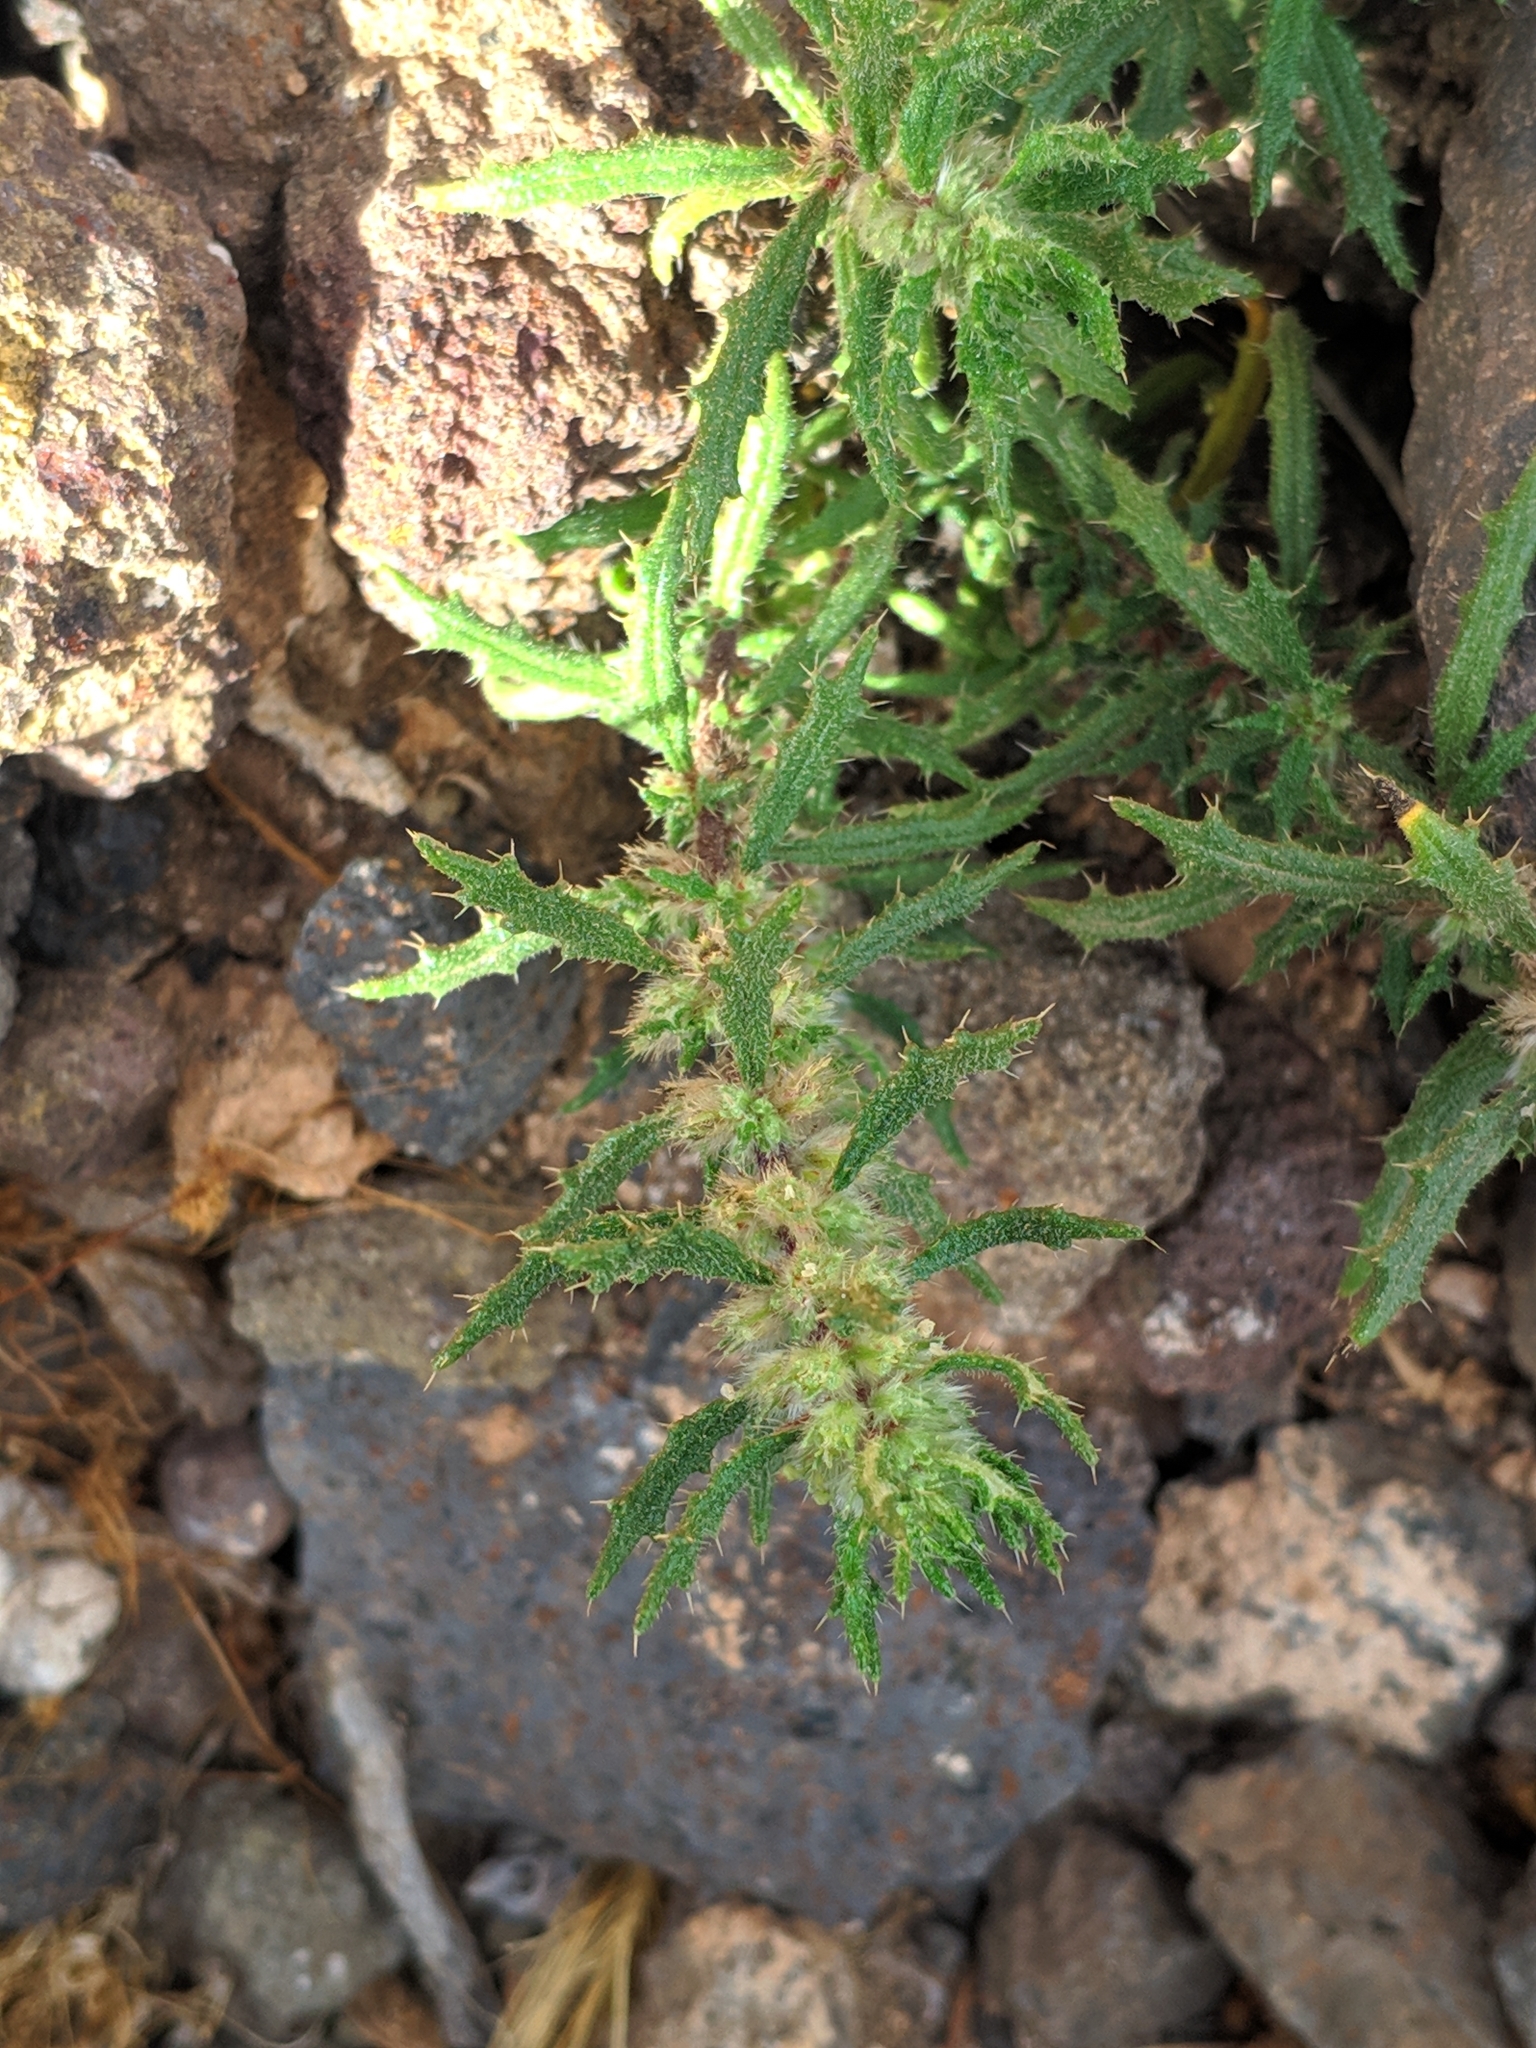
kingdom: Plantae
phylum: Tracheophyta
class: Magnoliopsida
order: Rosales
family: Urticaceae
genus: Forsskaolea
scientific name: Forsskaolea angustifolia
